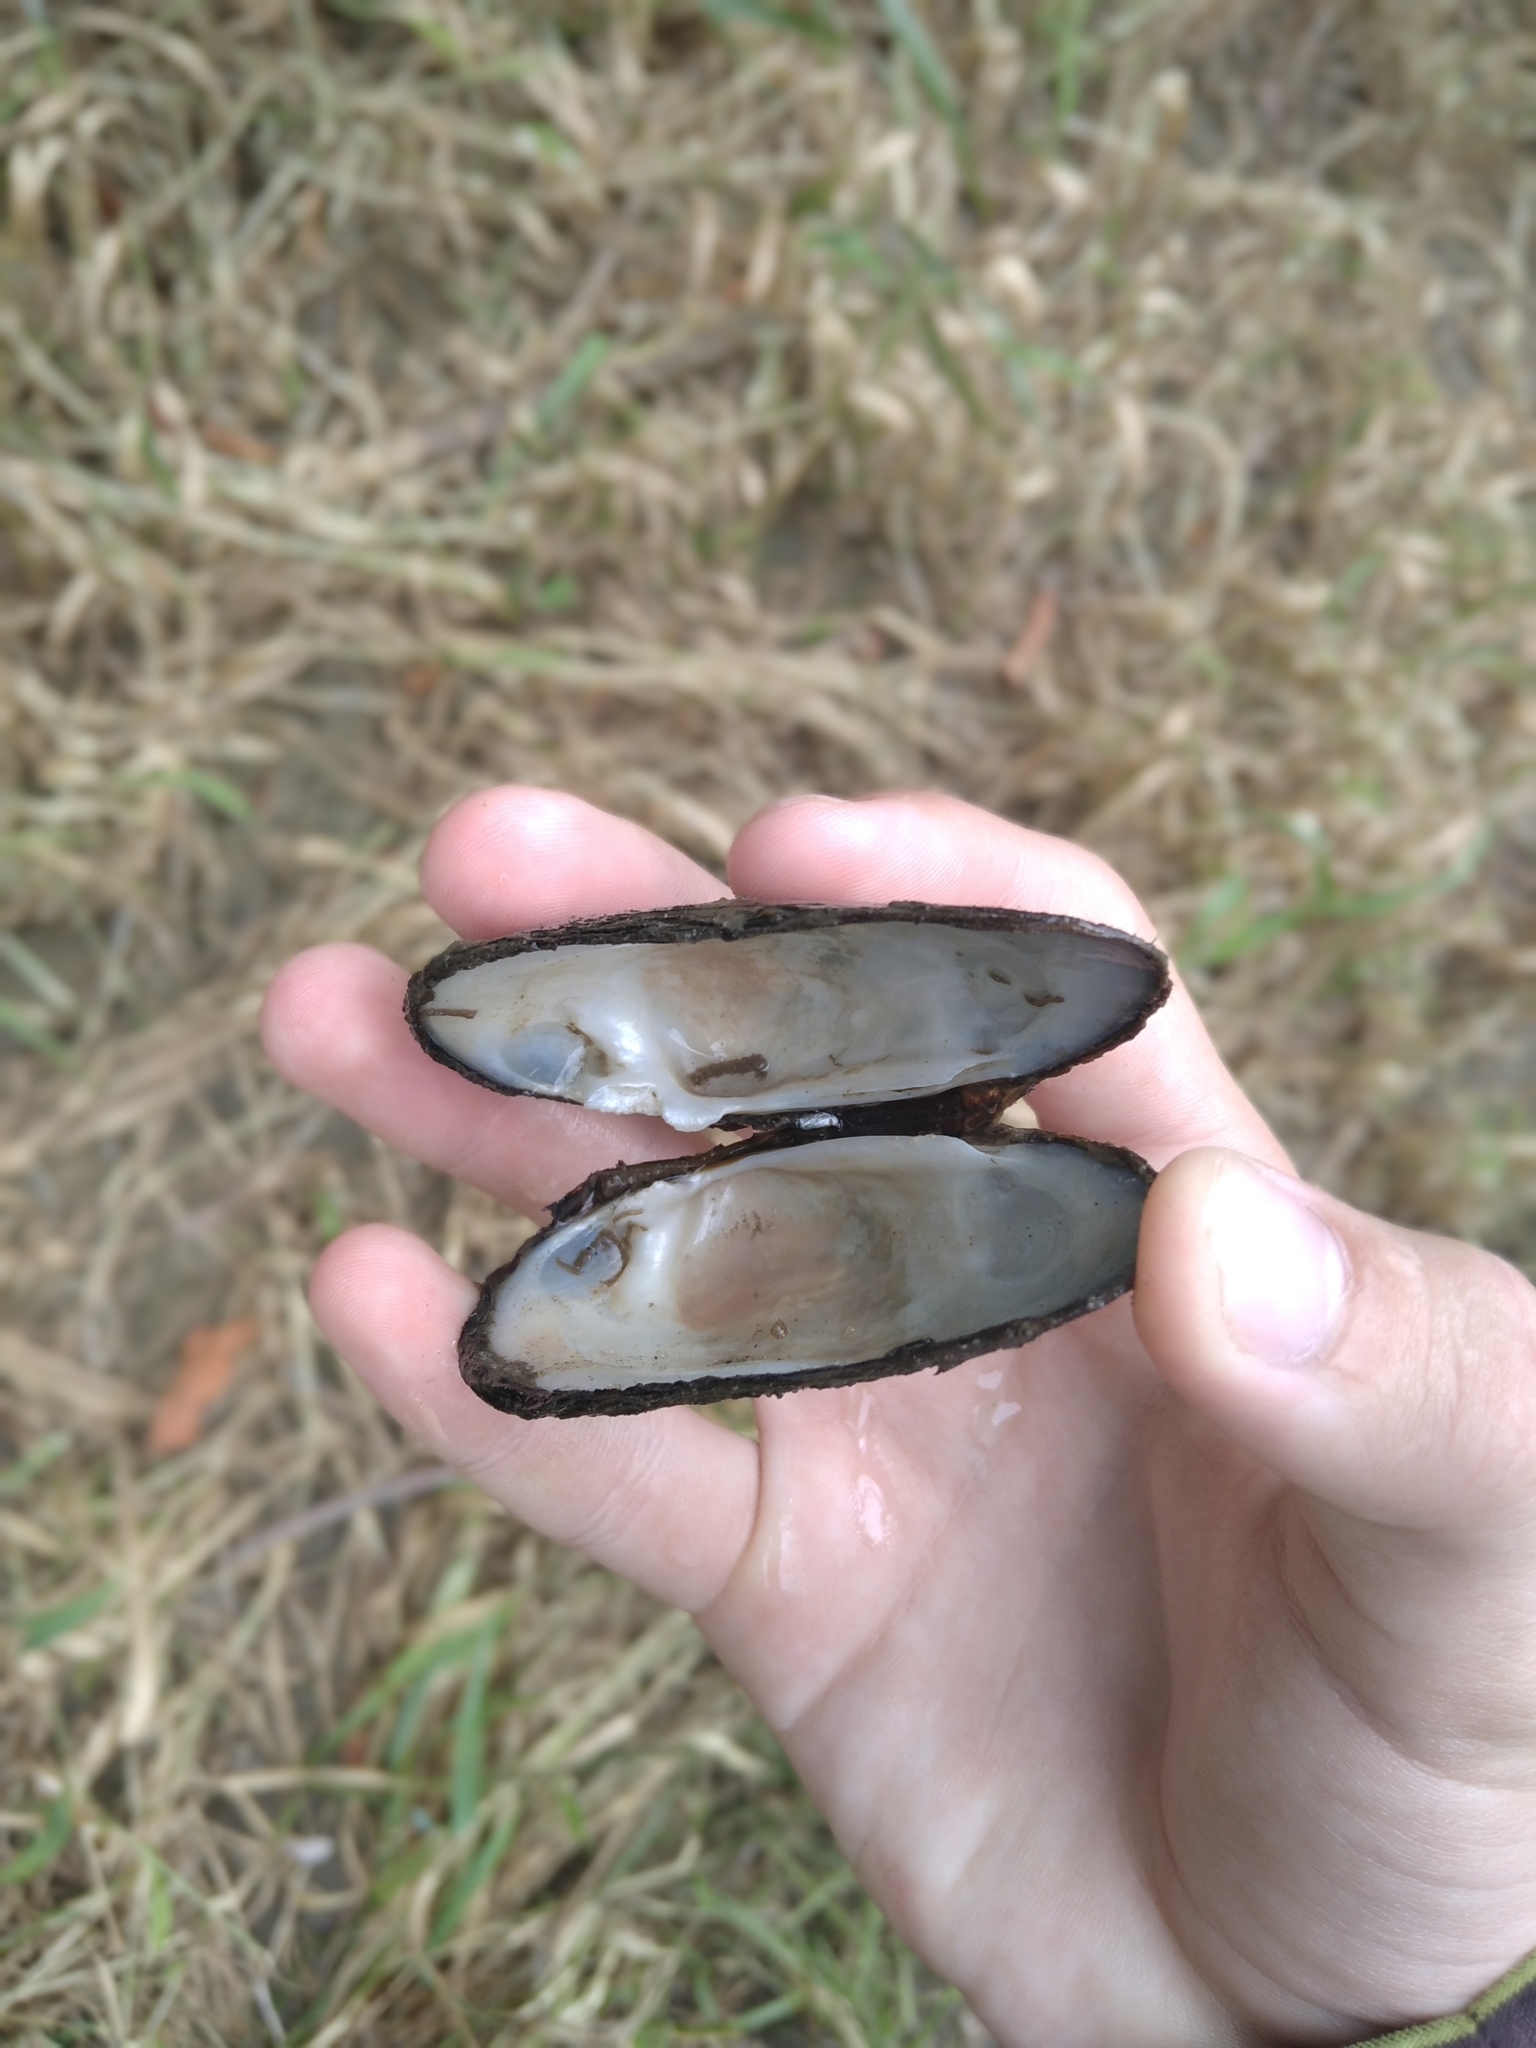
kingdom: Animalia
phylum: Mollusca
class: Bivalvia
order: Unionida
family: Unionidae
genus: Unio
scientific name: Unio crassus
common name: Thick shelled river mussel
